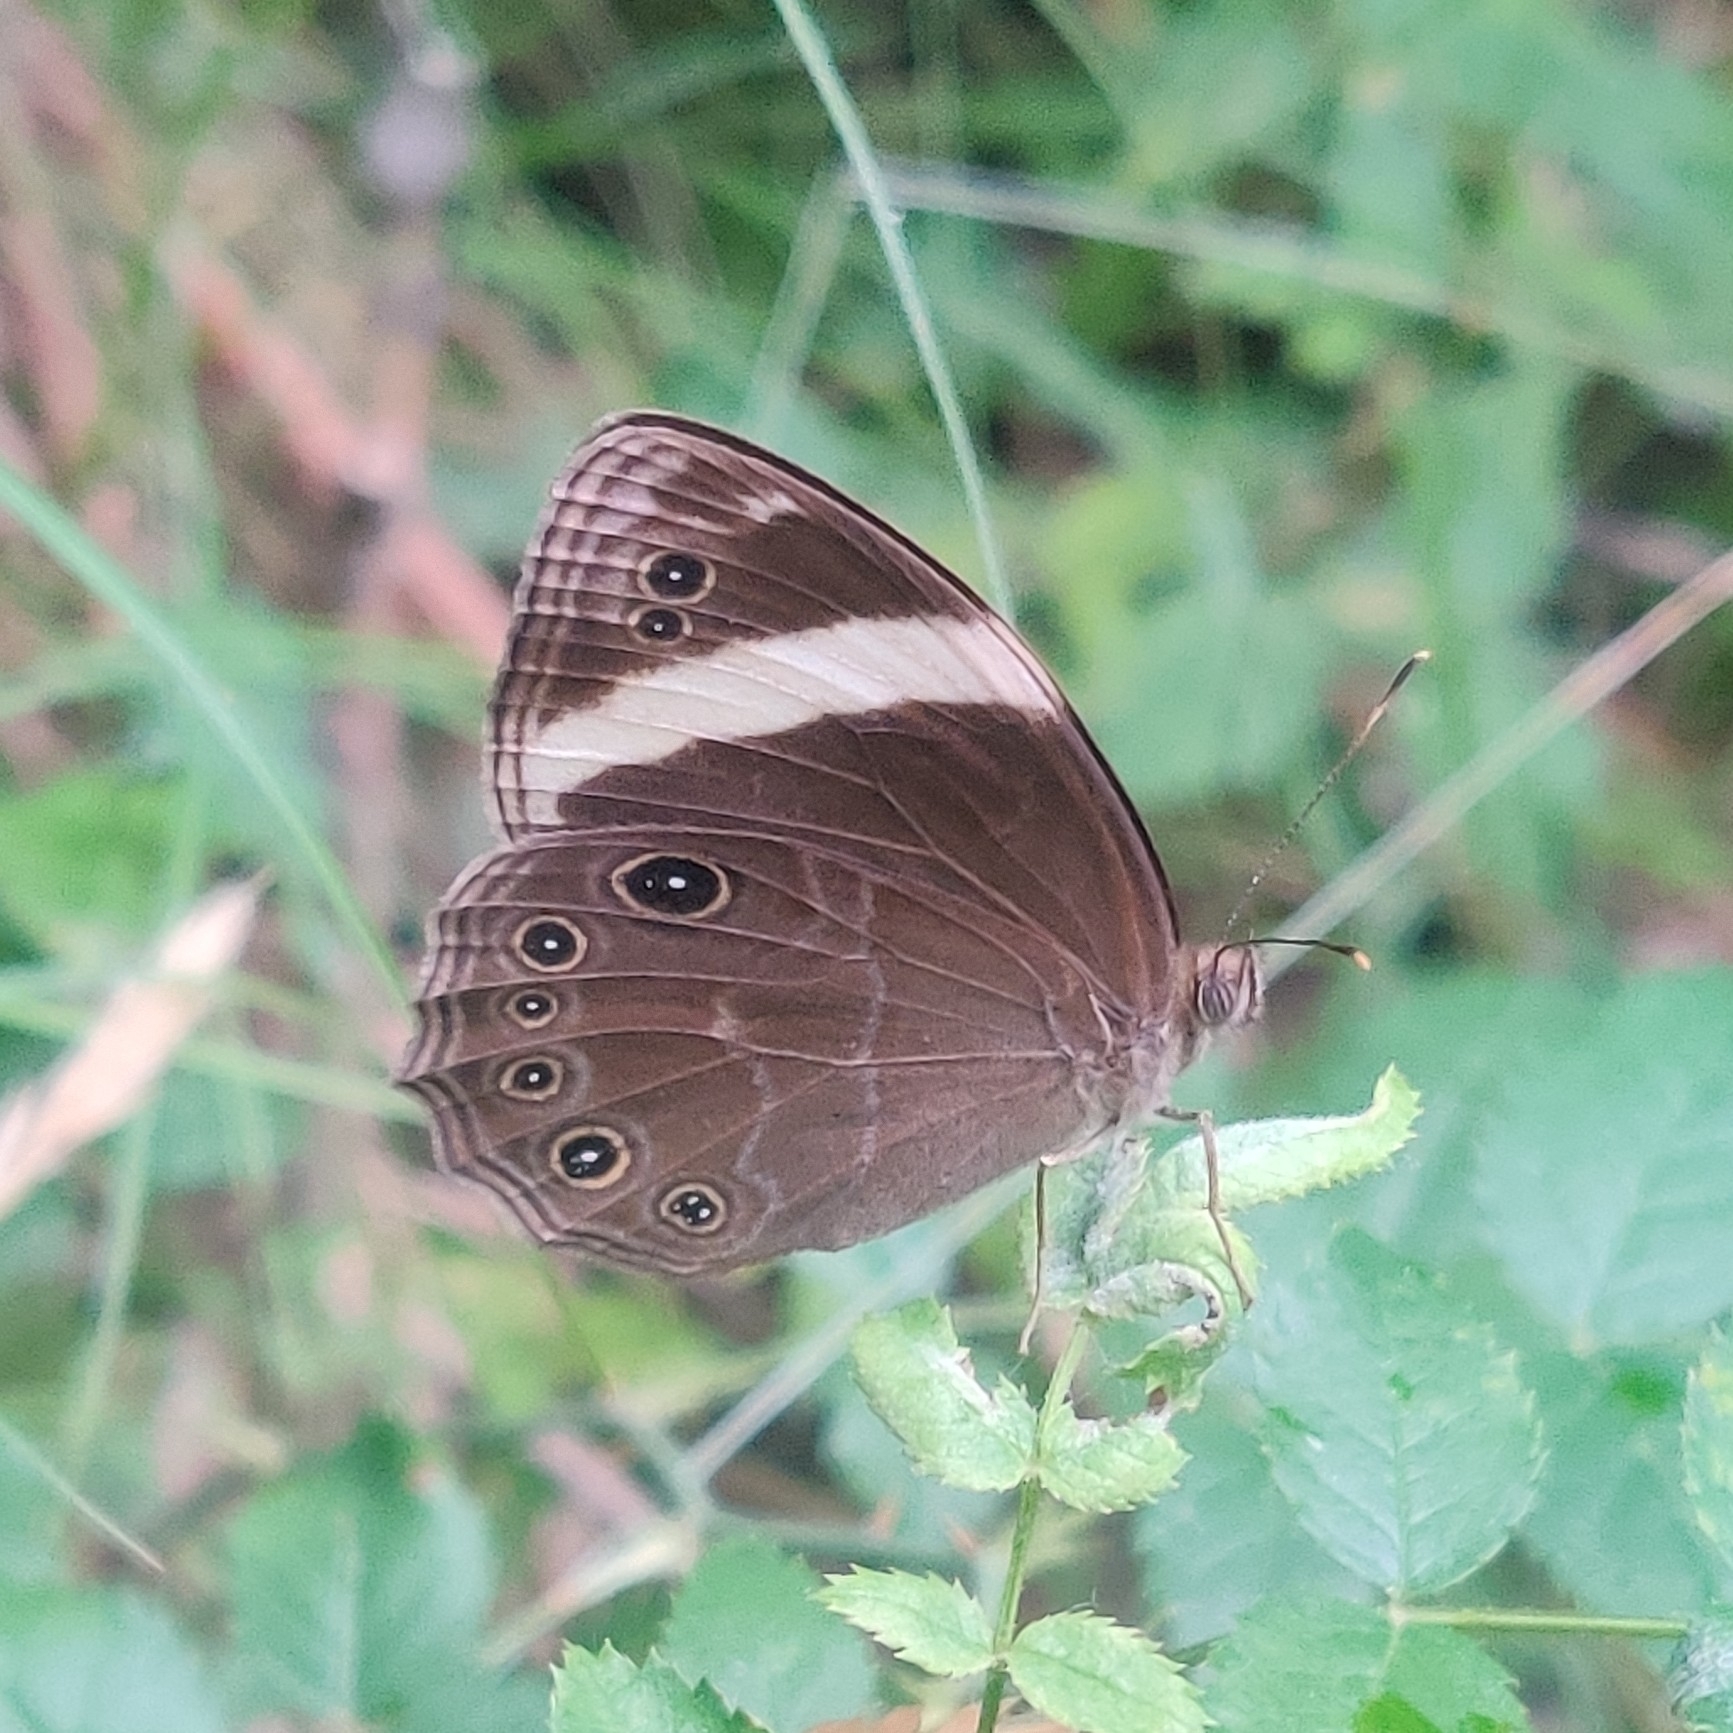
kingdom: Animalia
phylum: Arthropoda
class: Insecta
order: Lepidoptera
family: Nymphalidae
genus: Lethe
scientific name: Lethe verma
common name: Straight-banded treebrown
